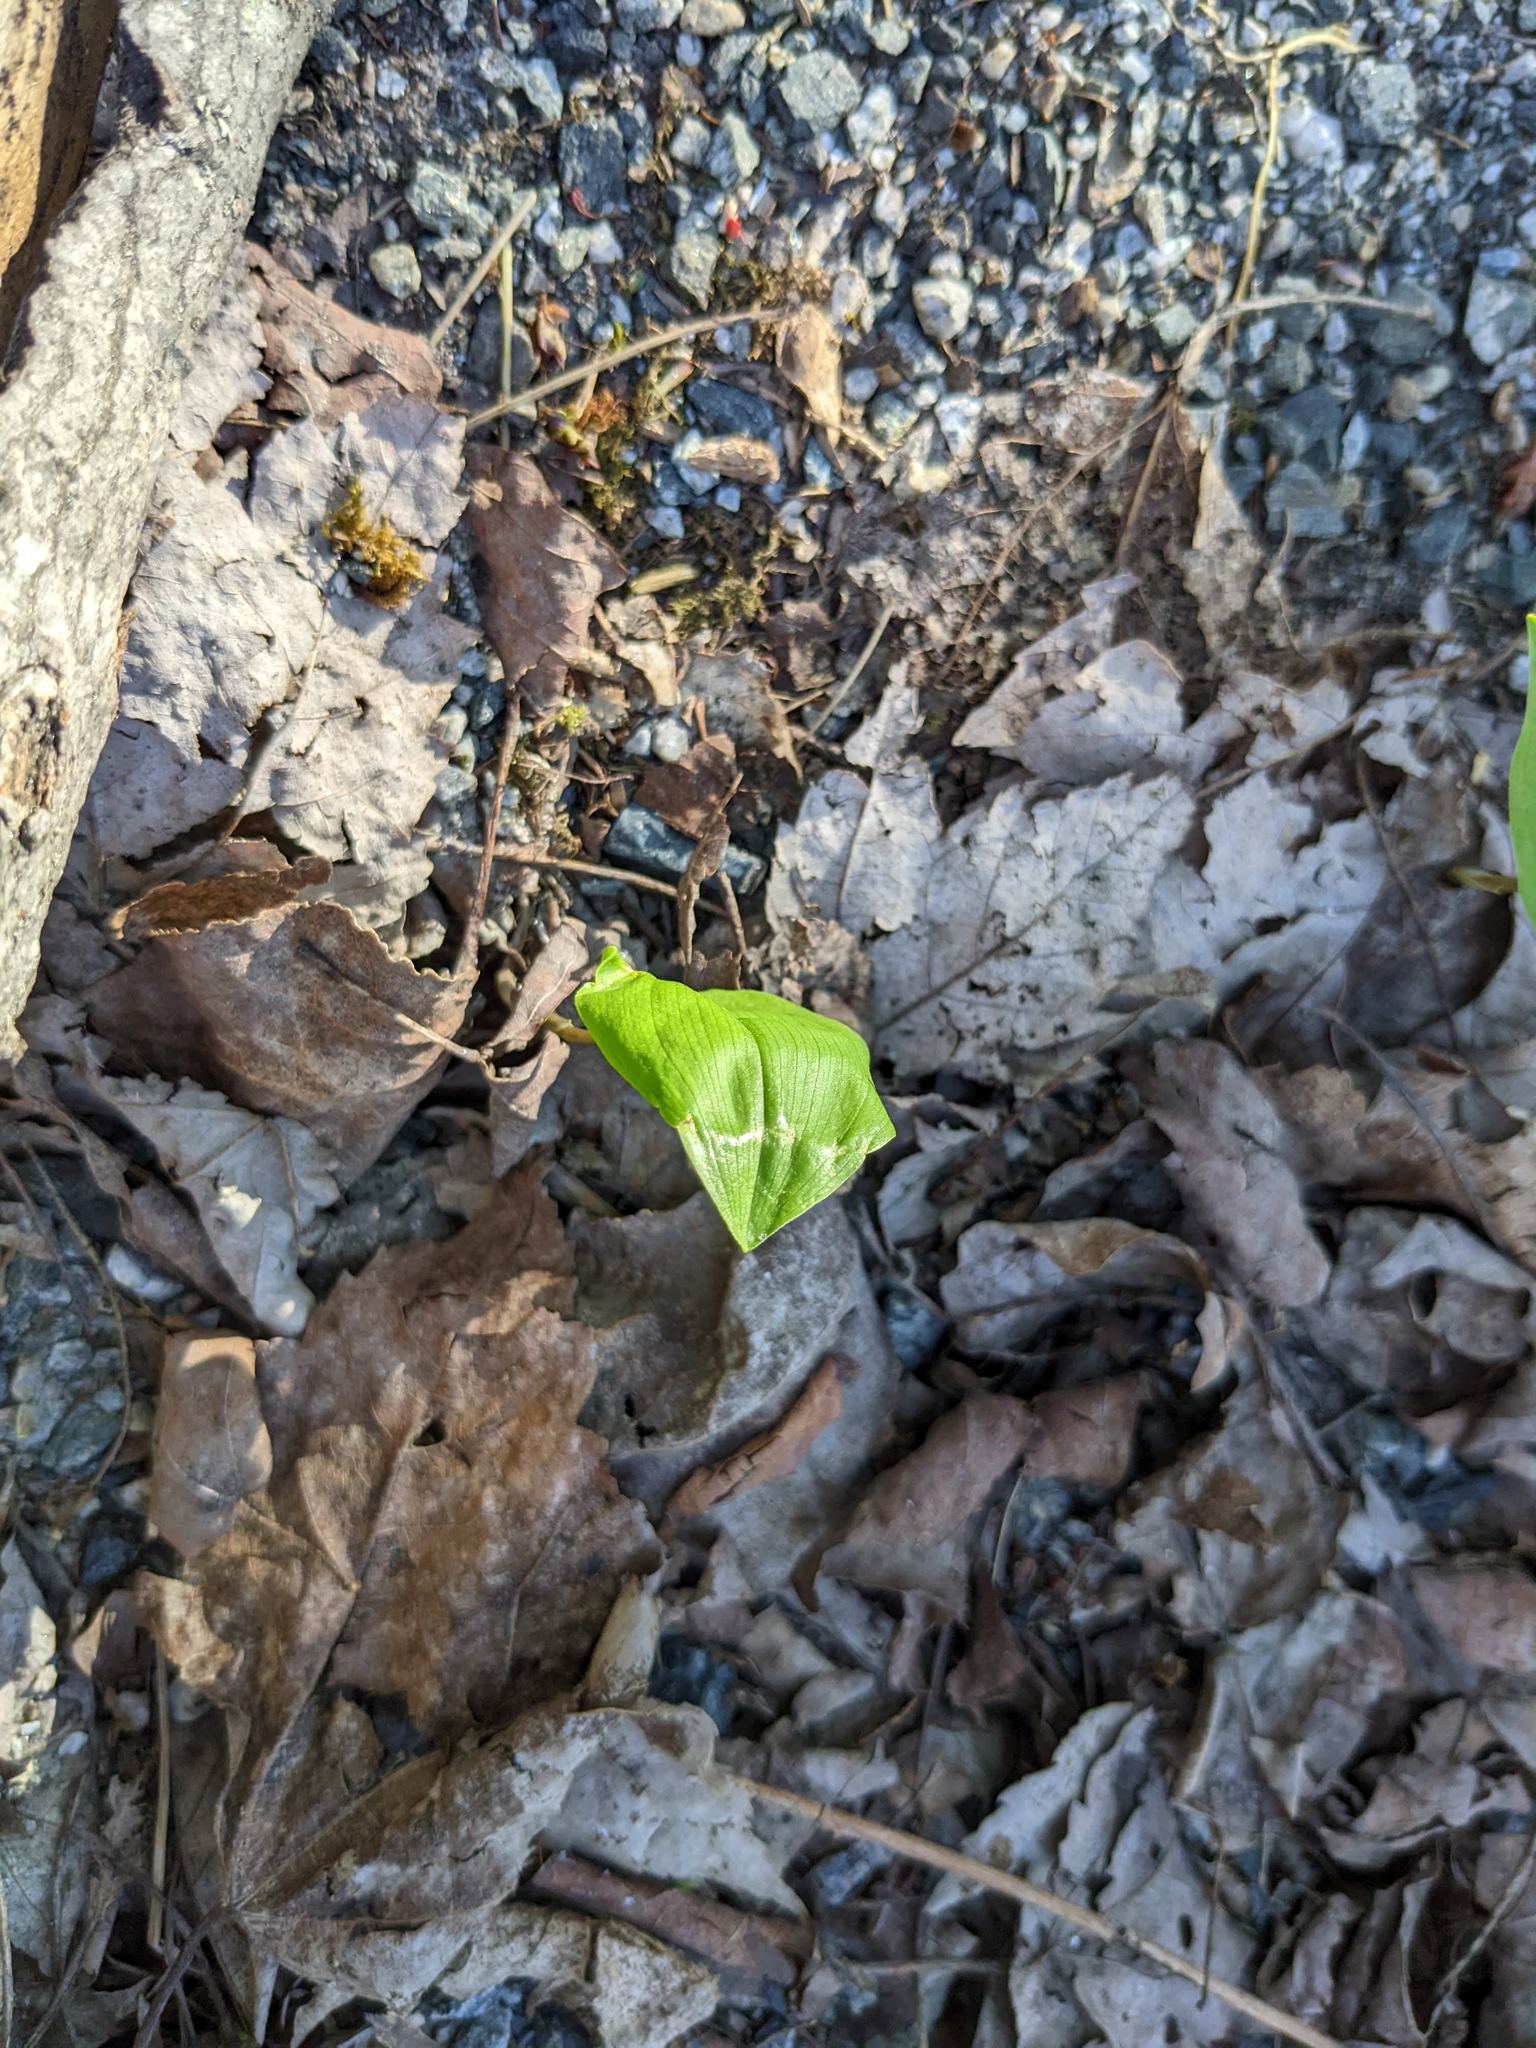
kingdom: Plantae
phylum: Tracheophyta
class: Liliopsida
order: Asparagales
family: Asparagaceae
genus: Maianthemum
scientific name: Maianthemum canadense
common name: False lily-of-the-valley
